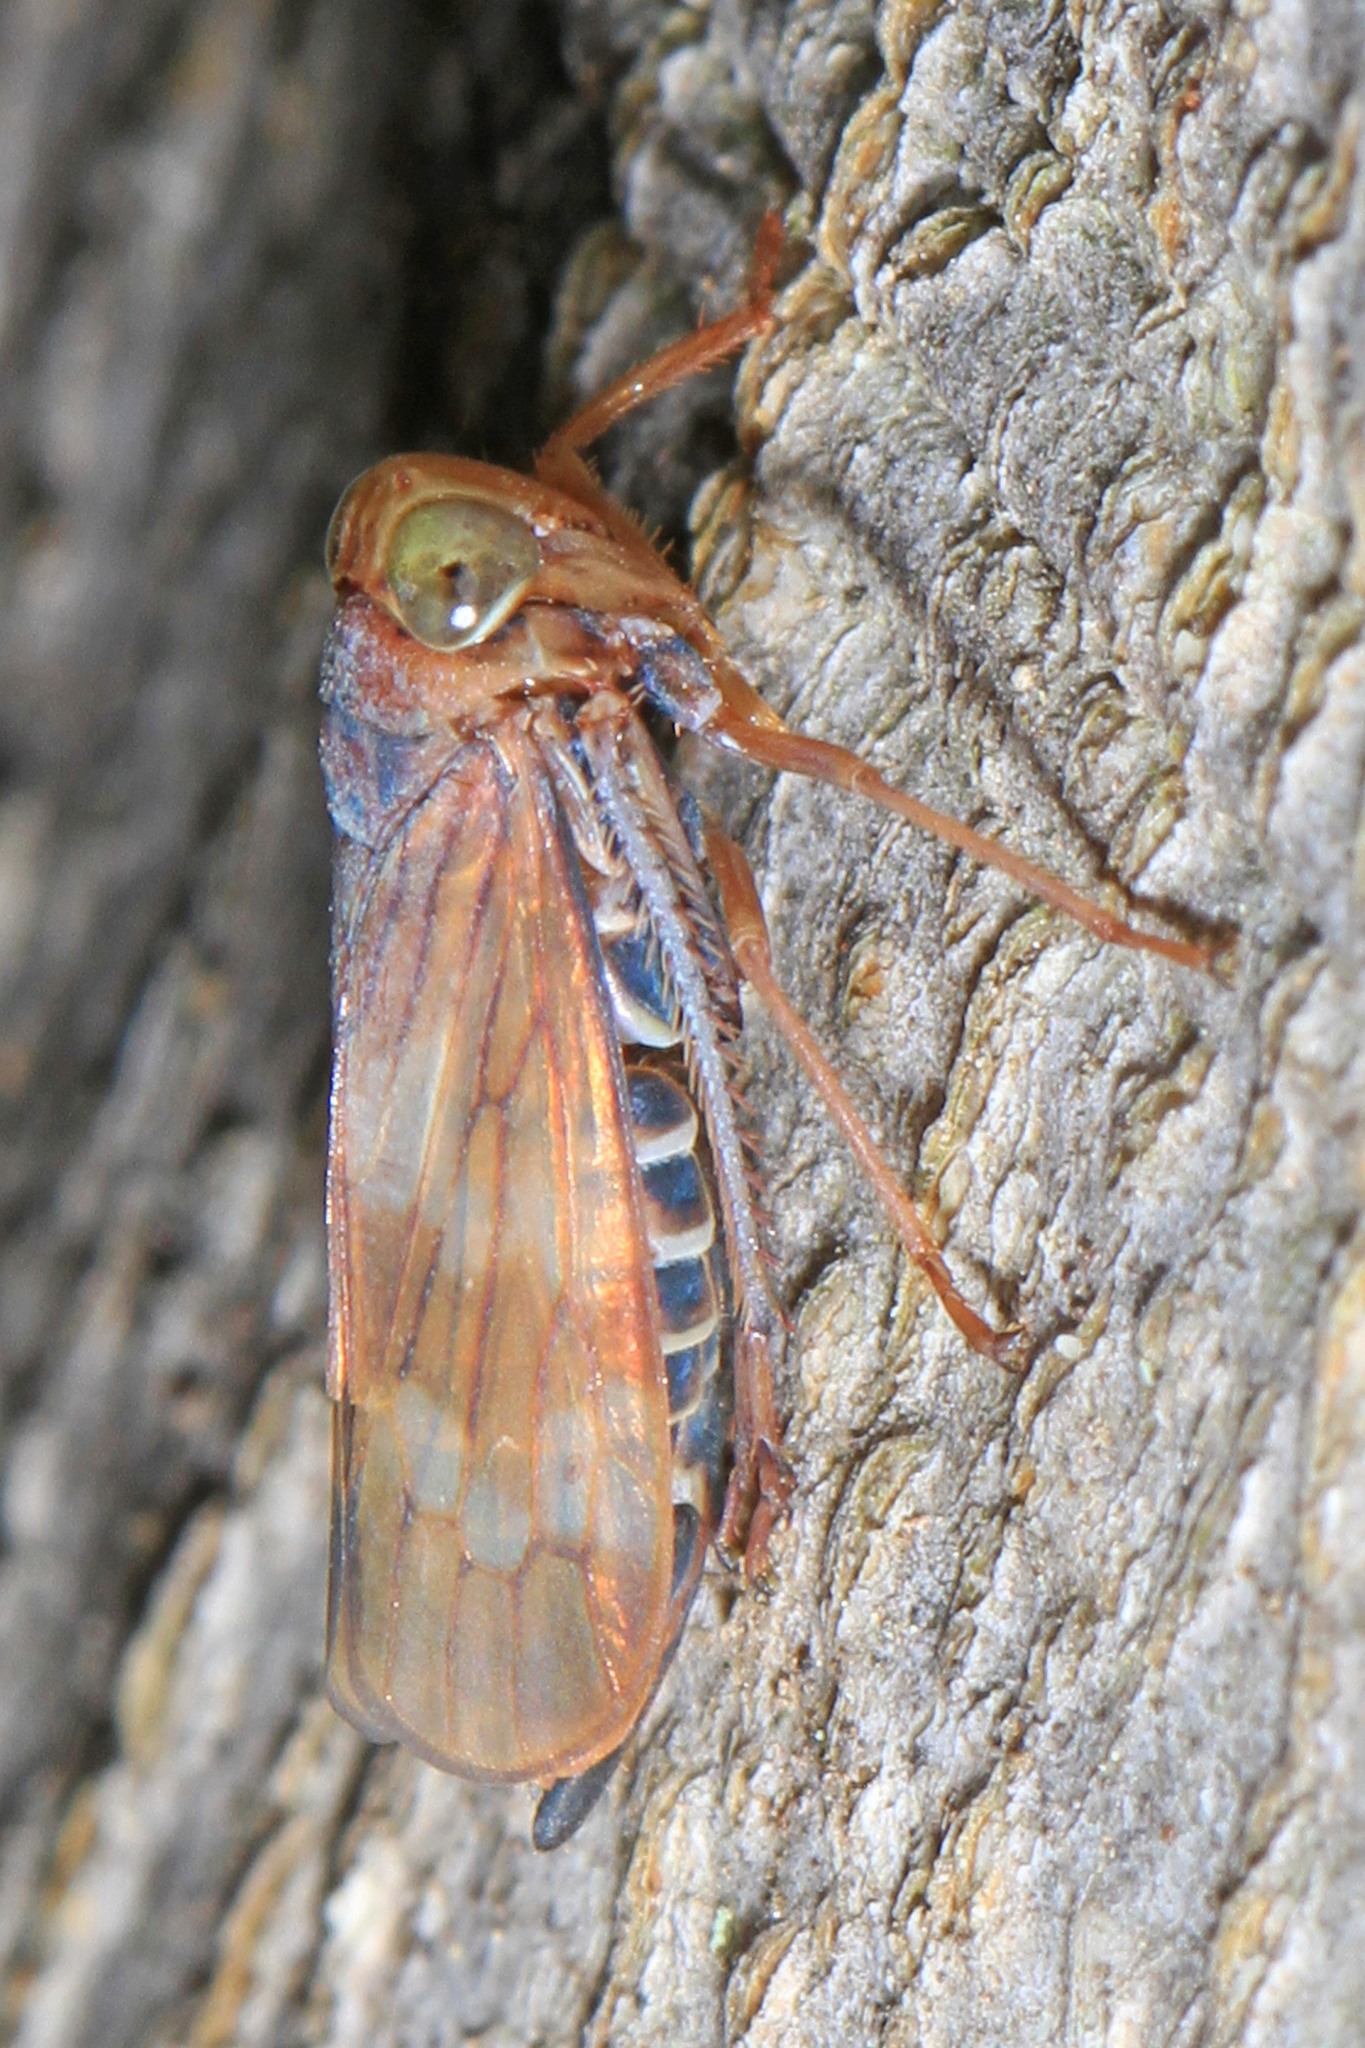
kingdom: Animalia
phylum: Arthropoda
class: Insecta
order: Hemiptera
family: Cicadellidae
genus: Jikradia
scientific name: Jikradia olitoria
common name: Coppery leafhopper
